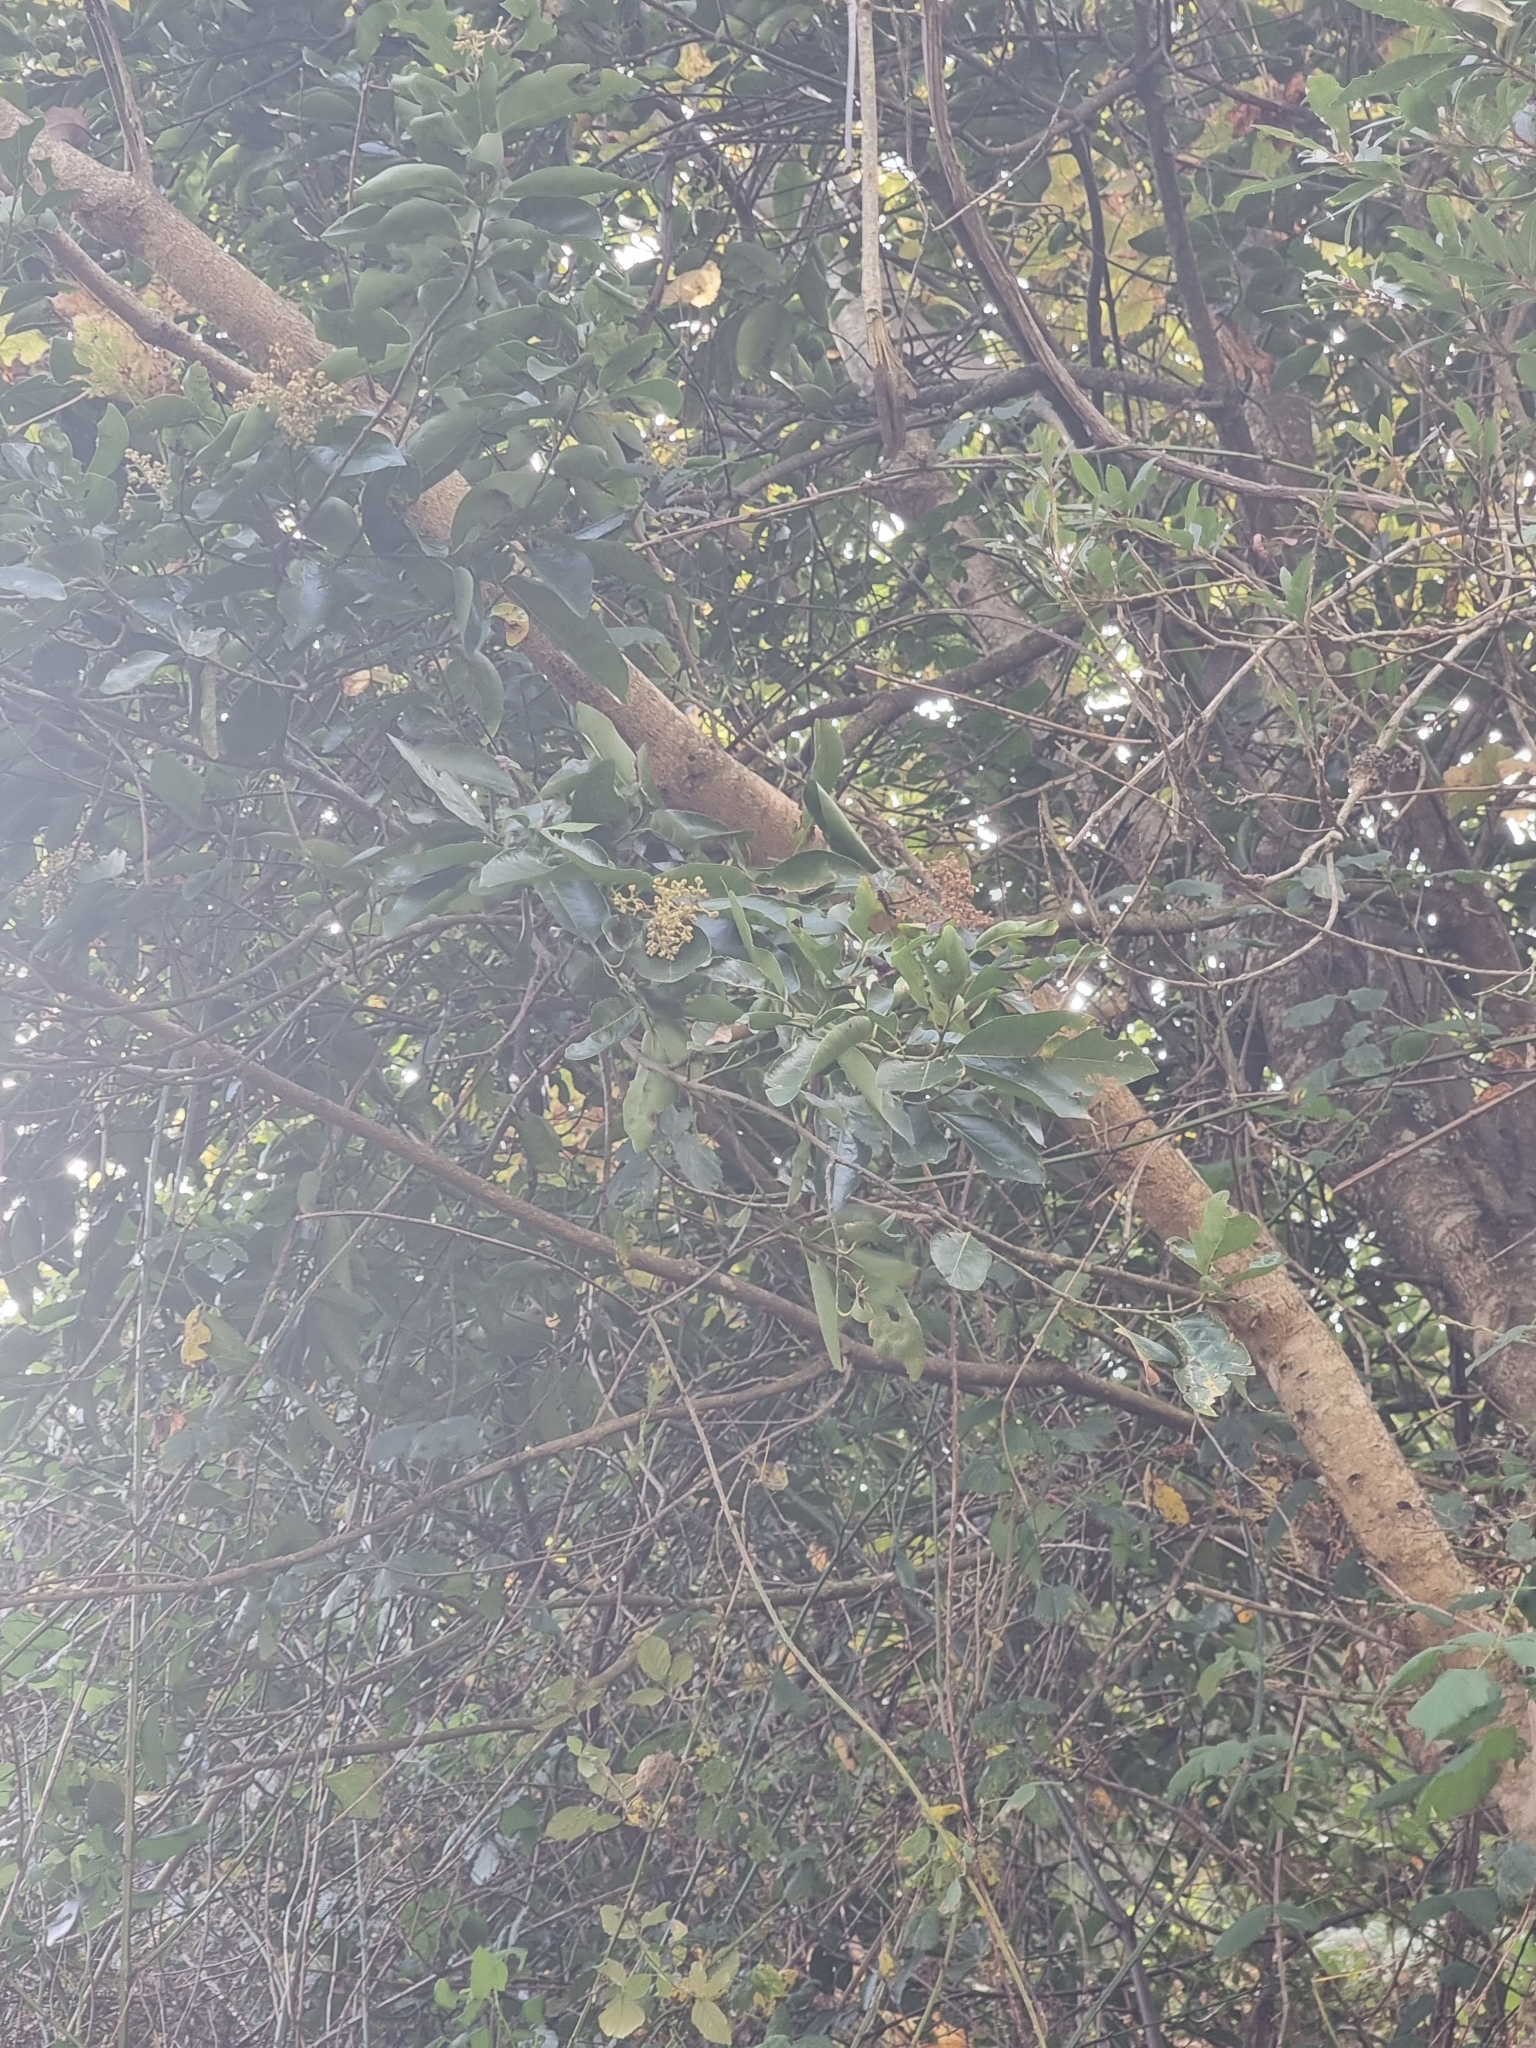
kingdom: Plantae
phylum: Tracheophyta
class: Magnoliopsida
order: Laurales
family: Lauraceae
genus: Laurus
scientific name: Laurus novocanariensis
